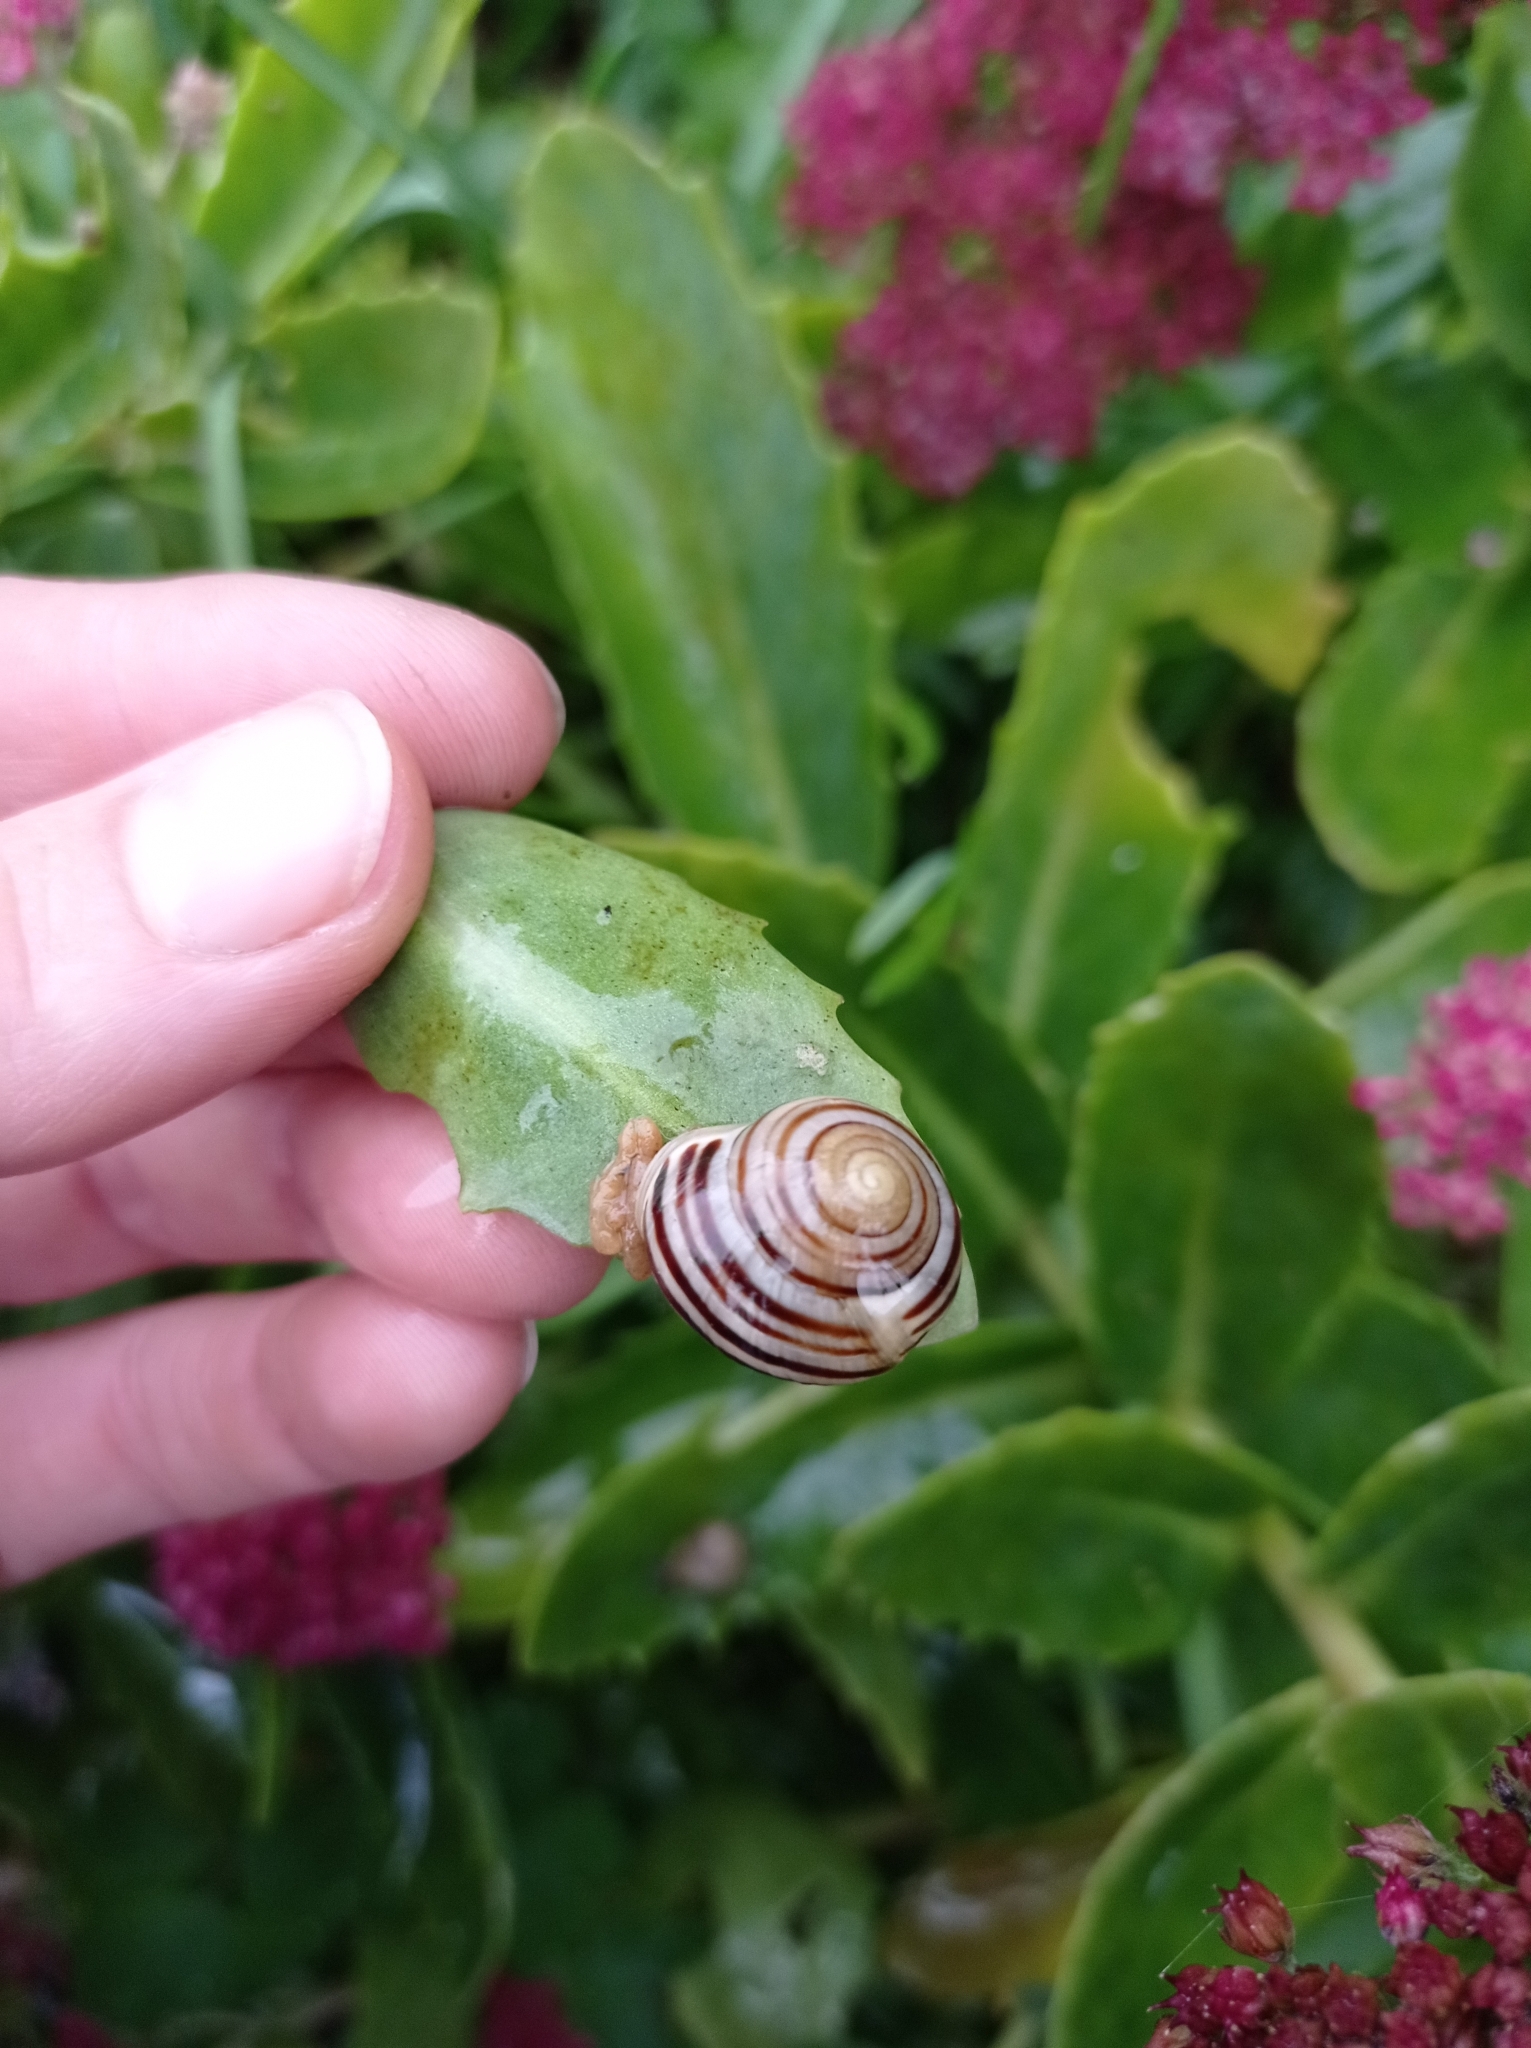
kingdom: Animalia
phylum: Mollusca
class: Gastropoda
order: Stylommatophora
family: Helicidae
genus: Cepaea
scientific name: Cepaea hortensis
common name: White-lip gardensnail
